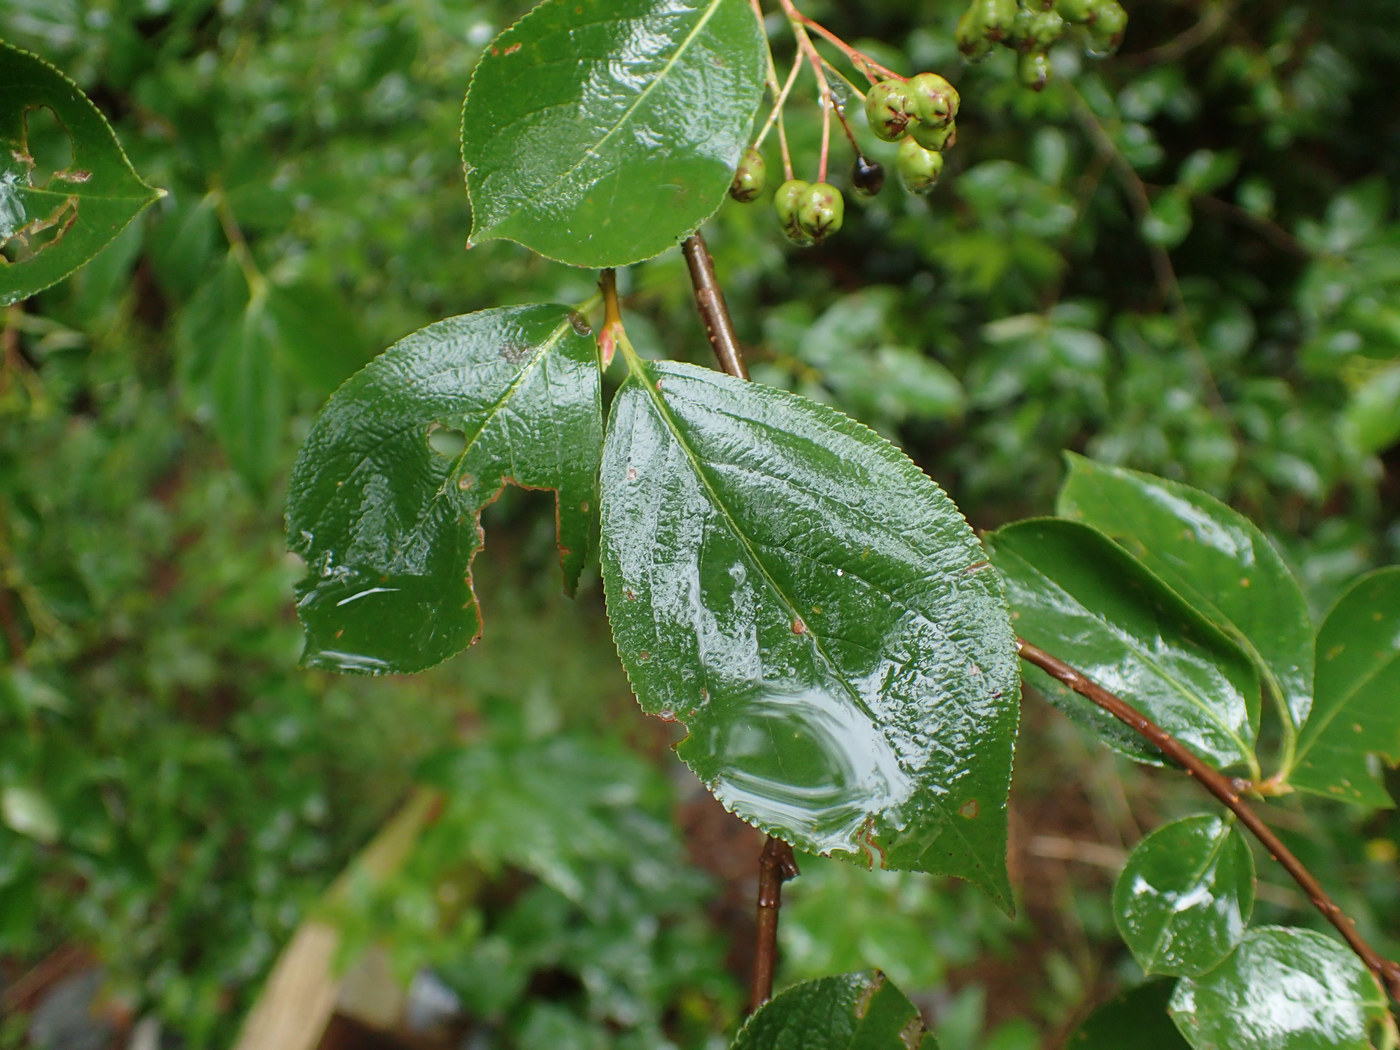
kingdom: Plantae
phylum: Tracheophyta
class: Magnoliopsida
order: Rosales
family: Rosaceae
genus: Aronia
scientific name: Aronia melanocarpa
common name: Black chokeberry
